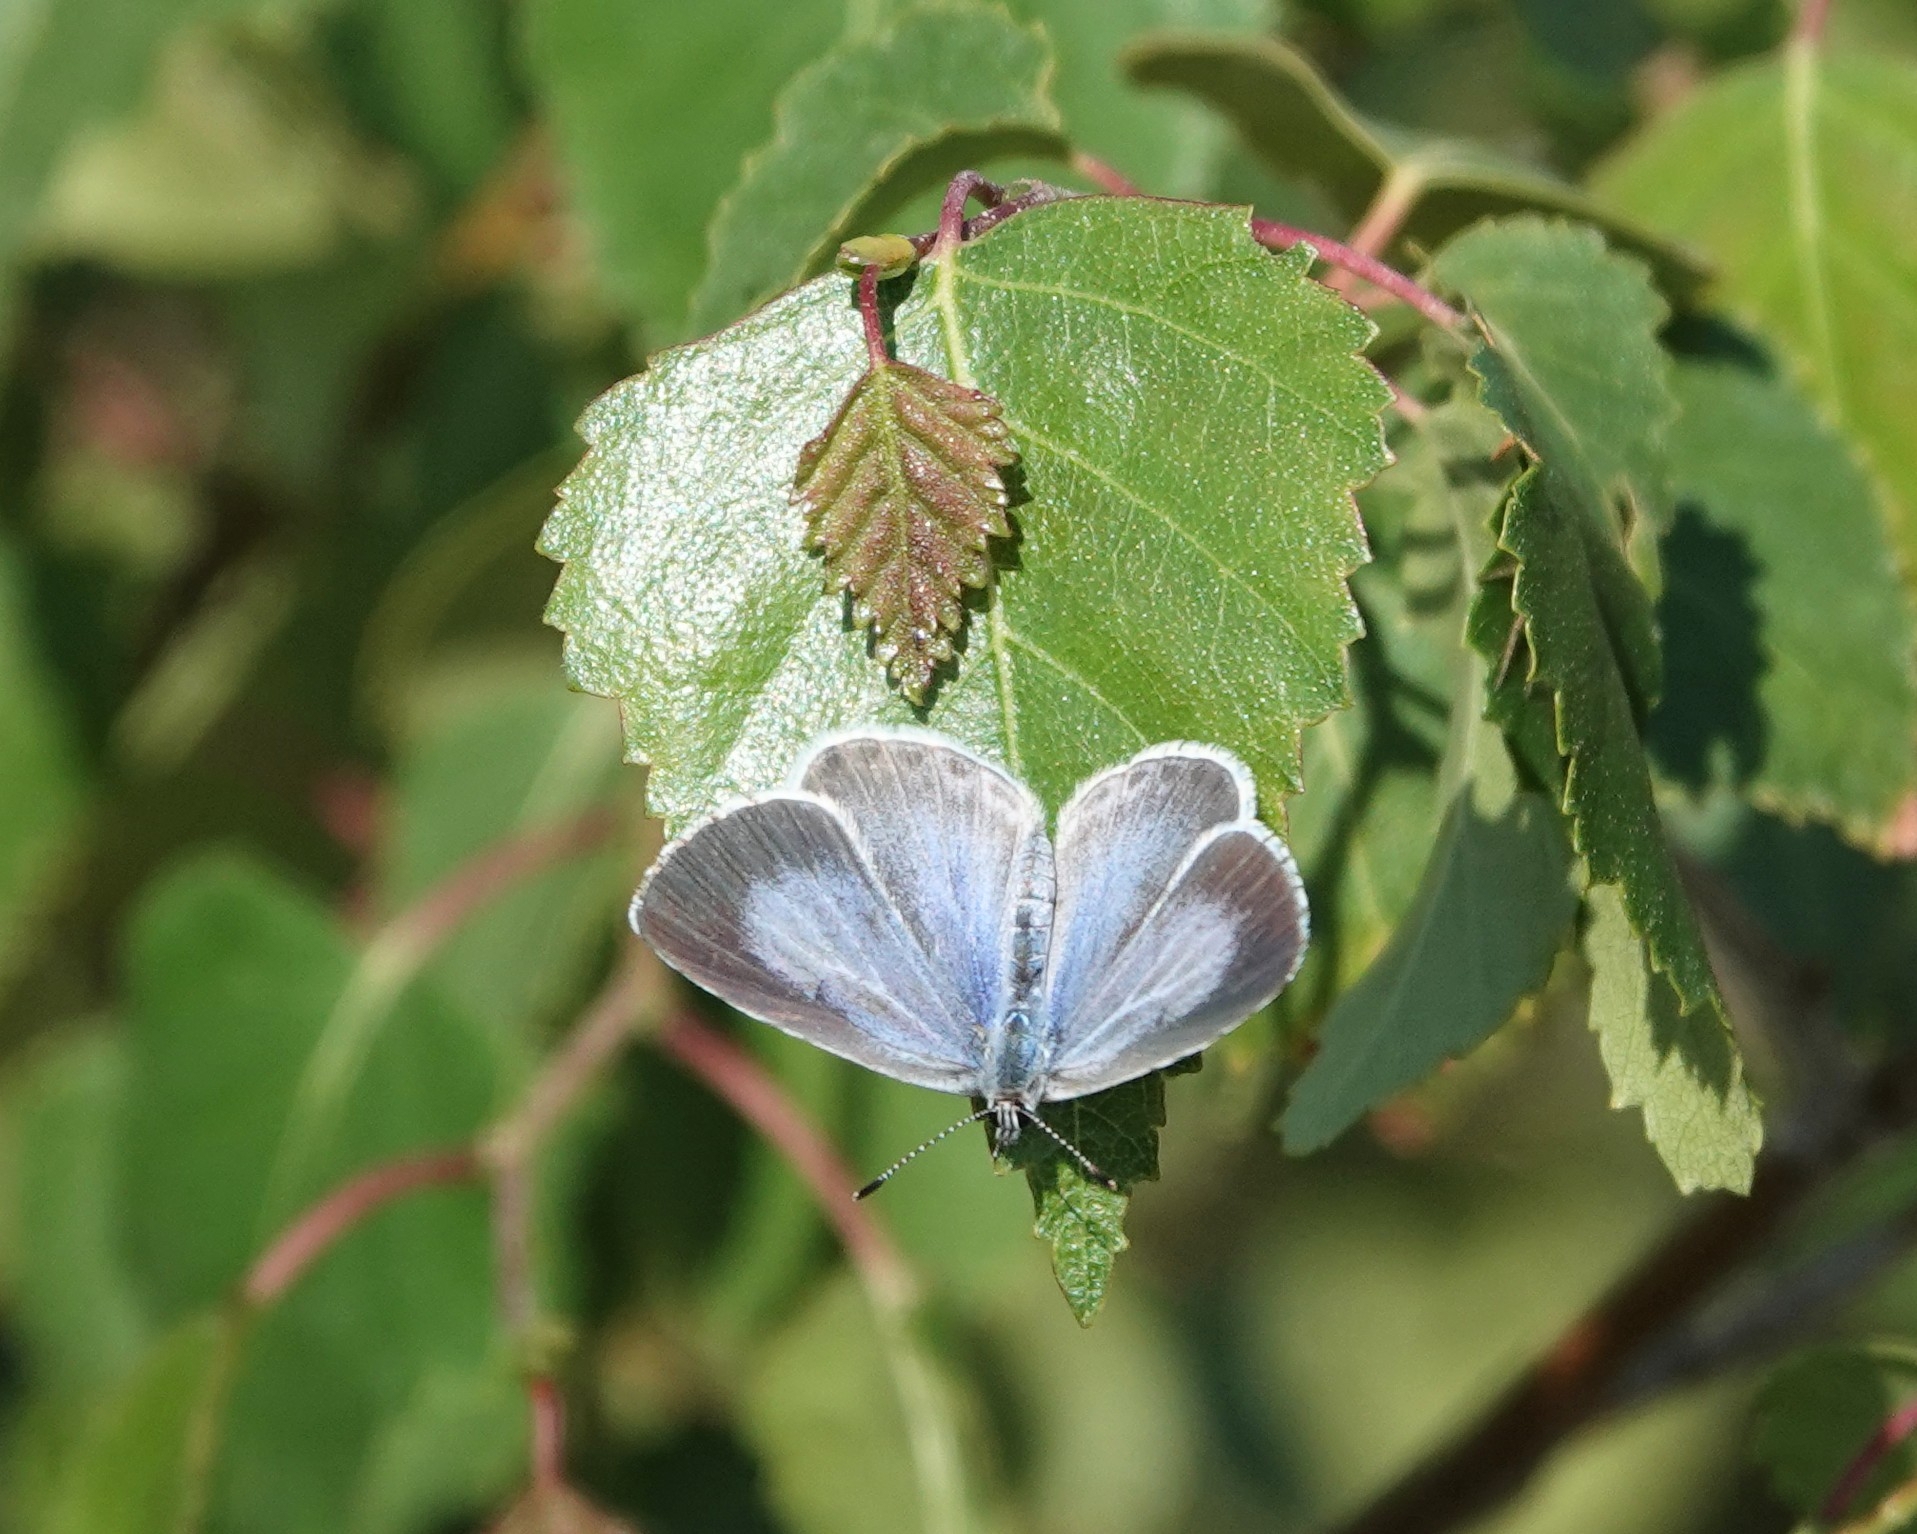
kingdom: Animalia
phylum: Arthropoda
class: Insecta
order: Lepidoptera
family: Lycaenidae
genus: Celastrina
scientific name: Celastrina argiolus
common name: Holly blue
